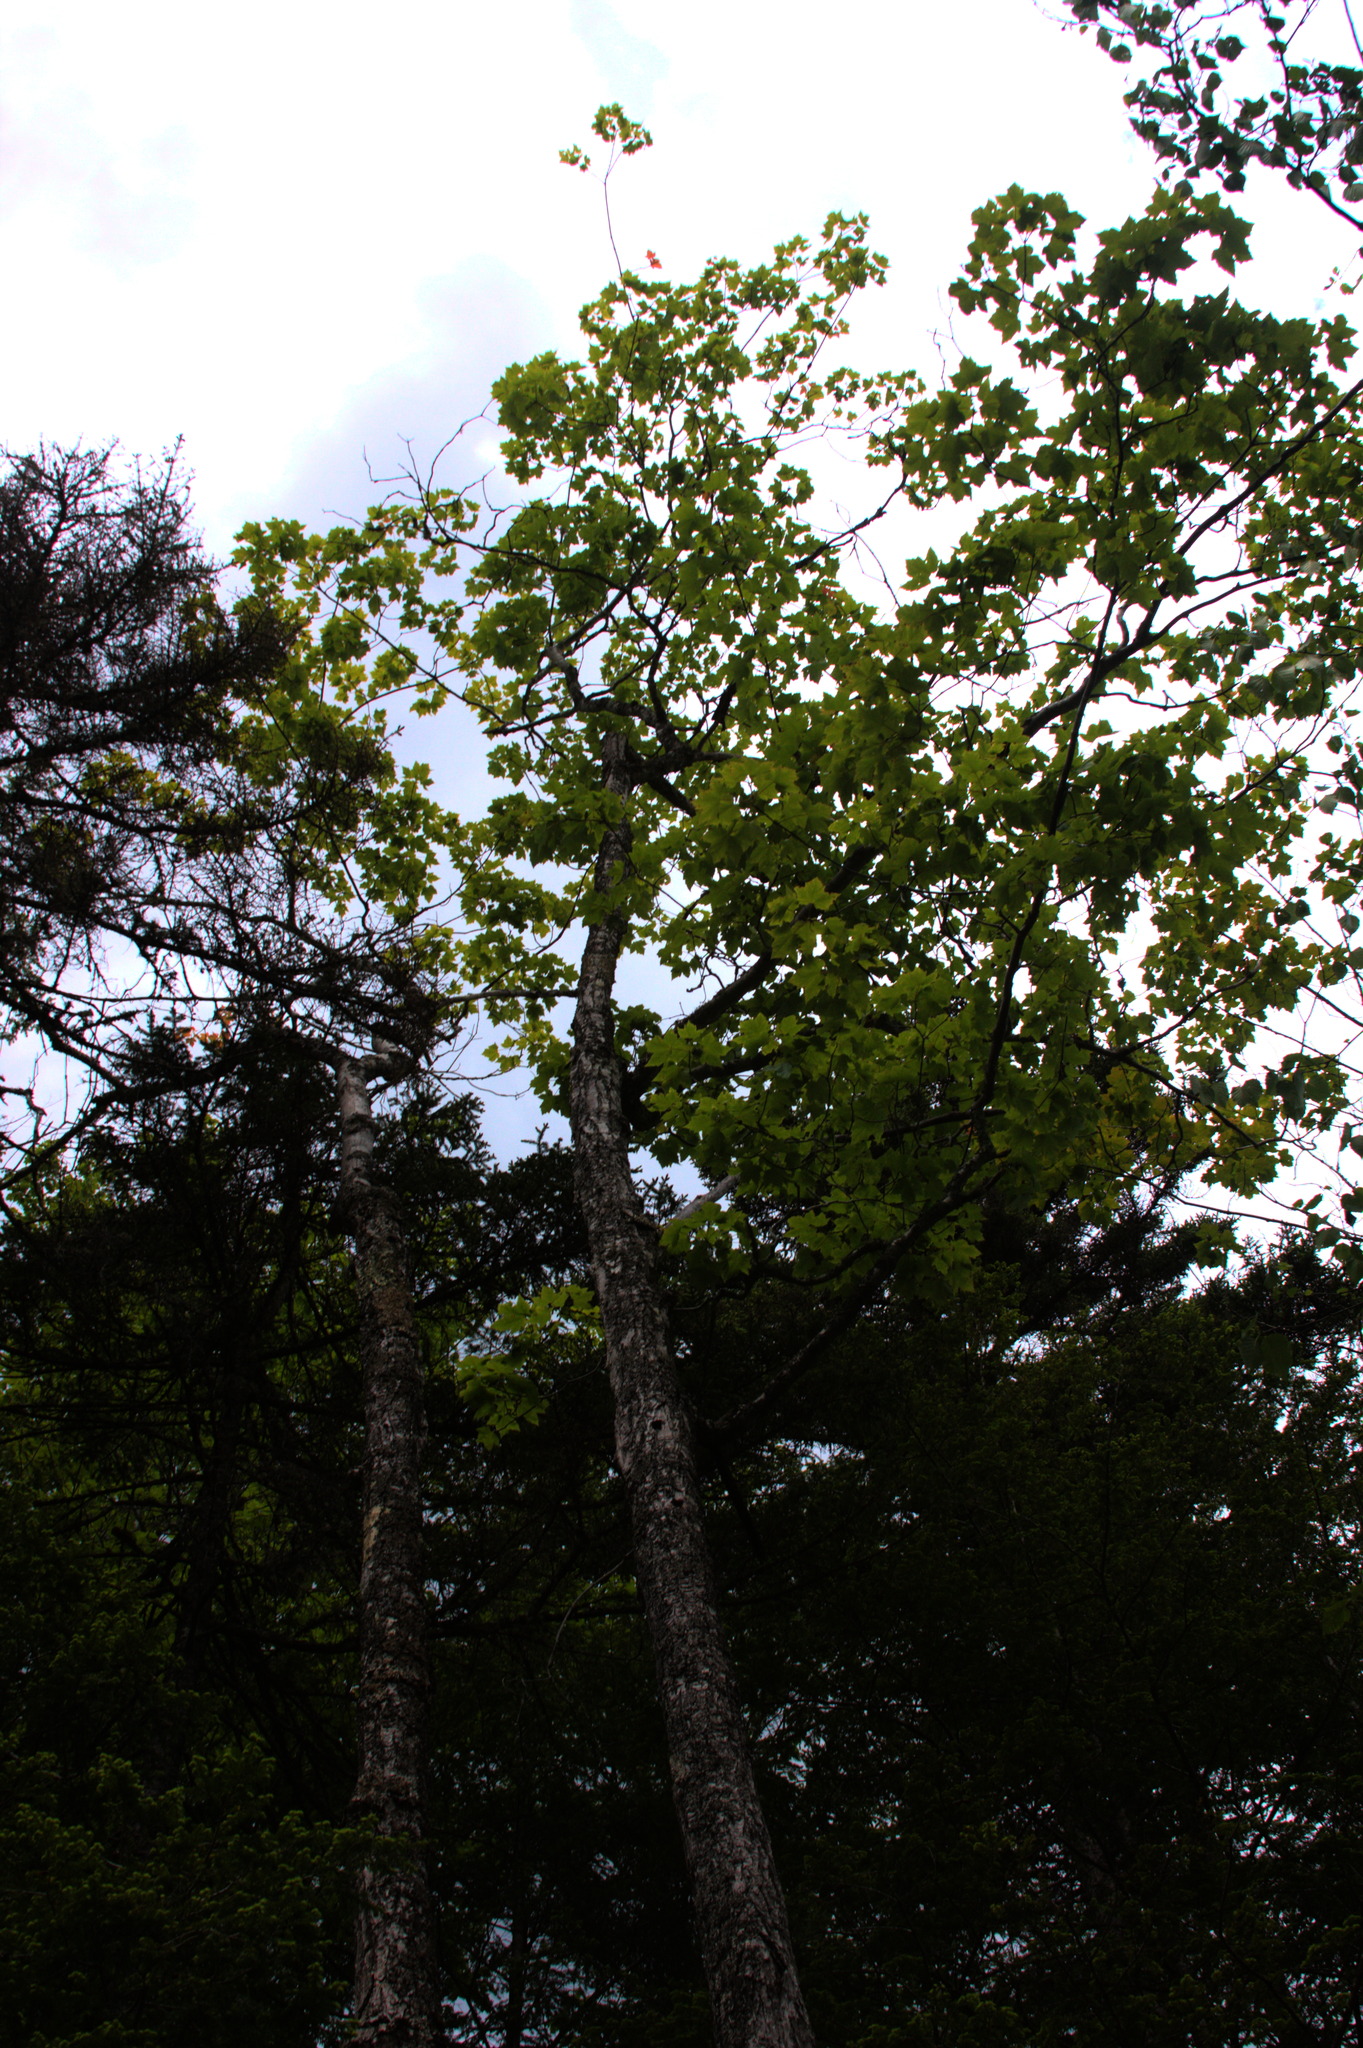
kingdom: Plantae
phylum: Tracheophyta
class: Magnoliopsida
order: Sapindales
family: Sapindaceae
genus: Acer
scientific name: Acer rubrum
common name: Red maple
